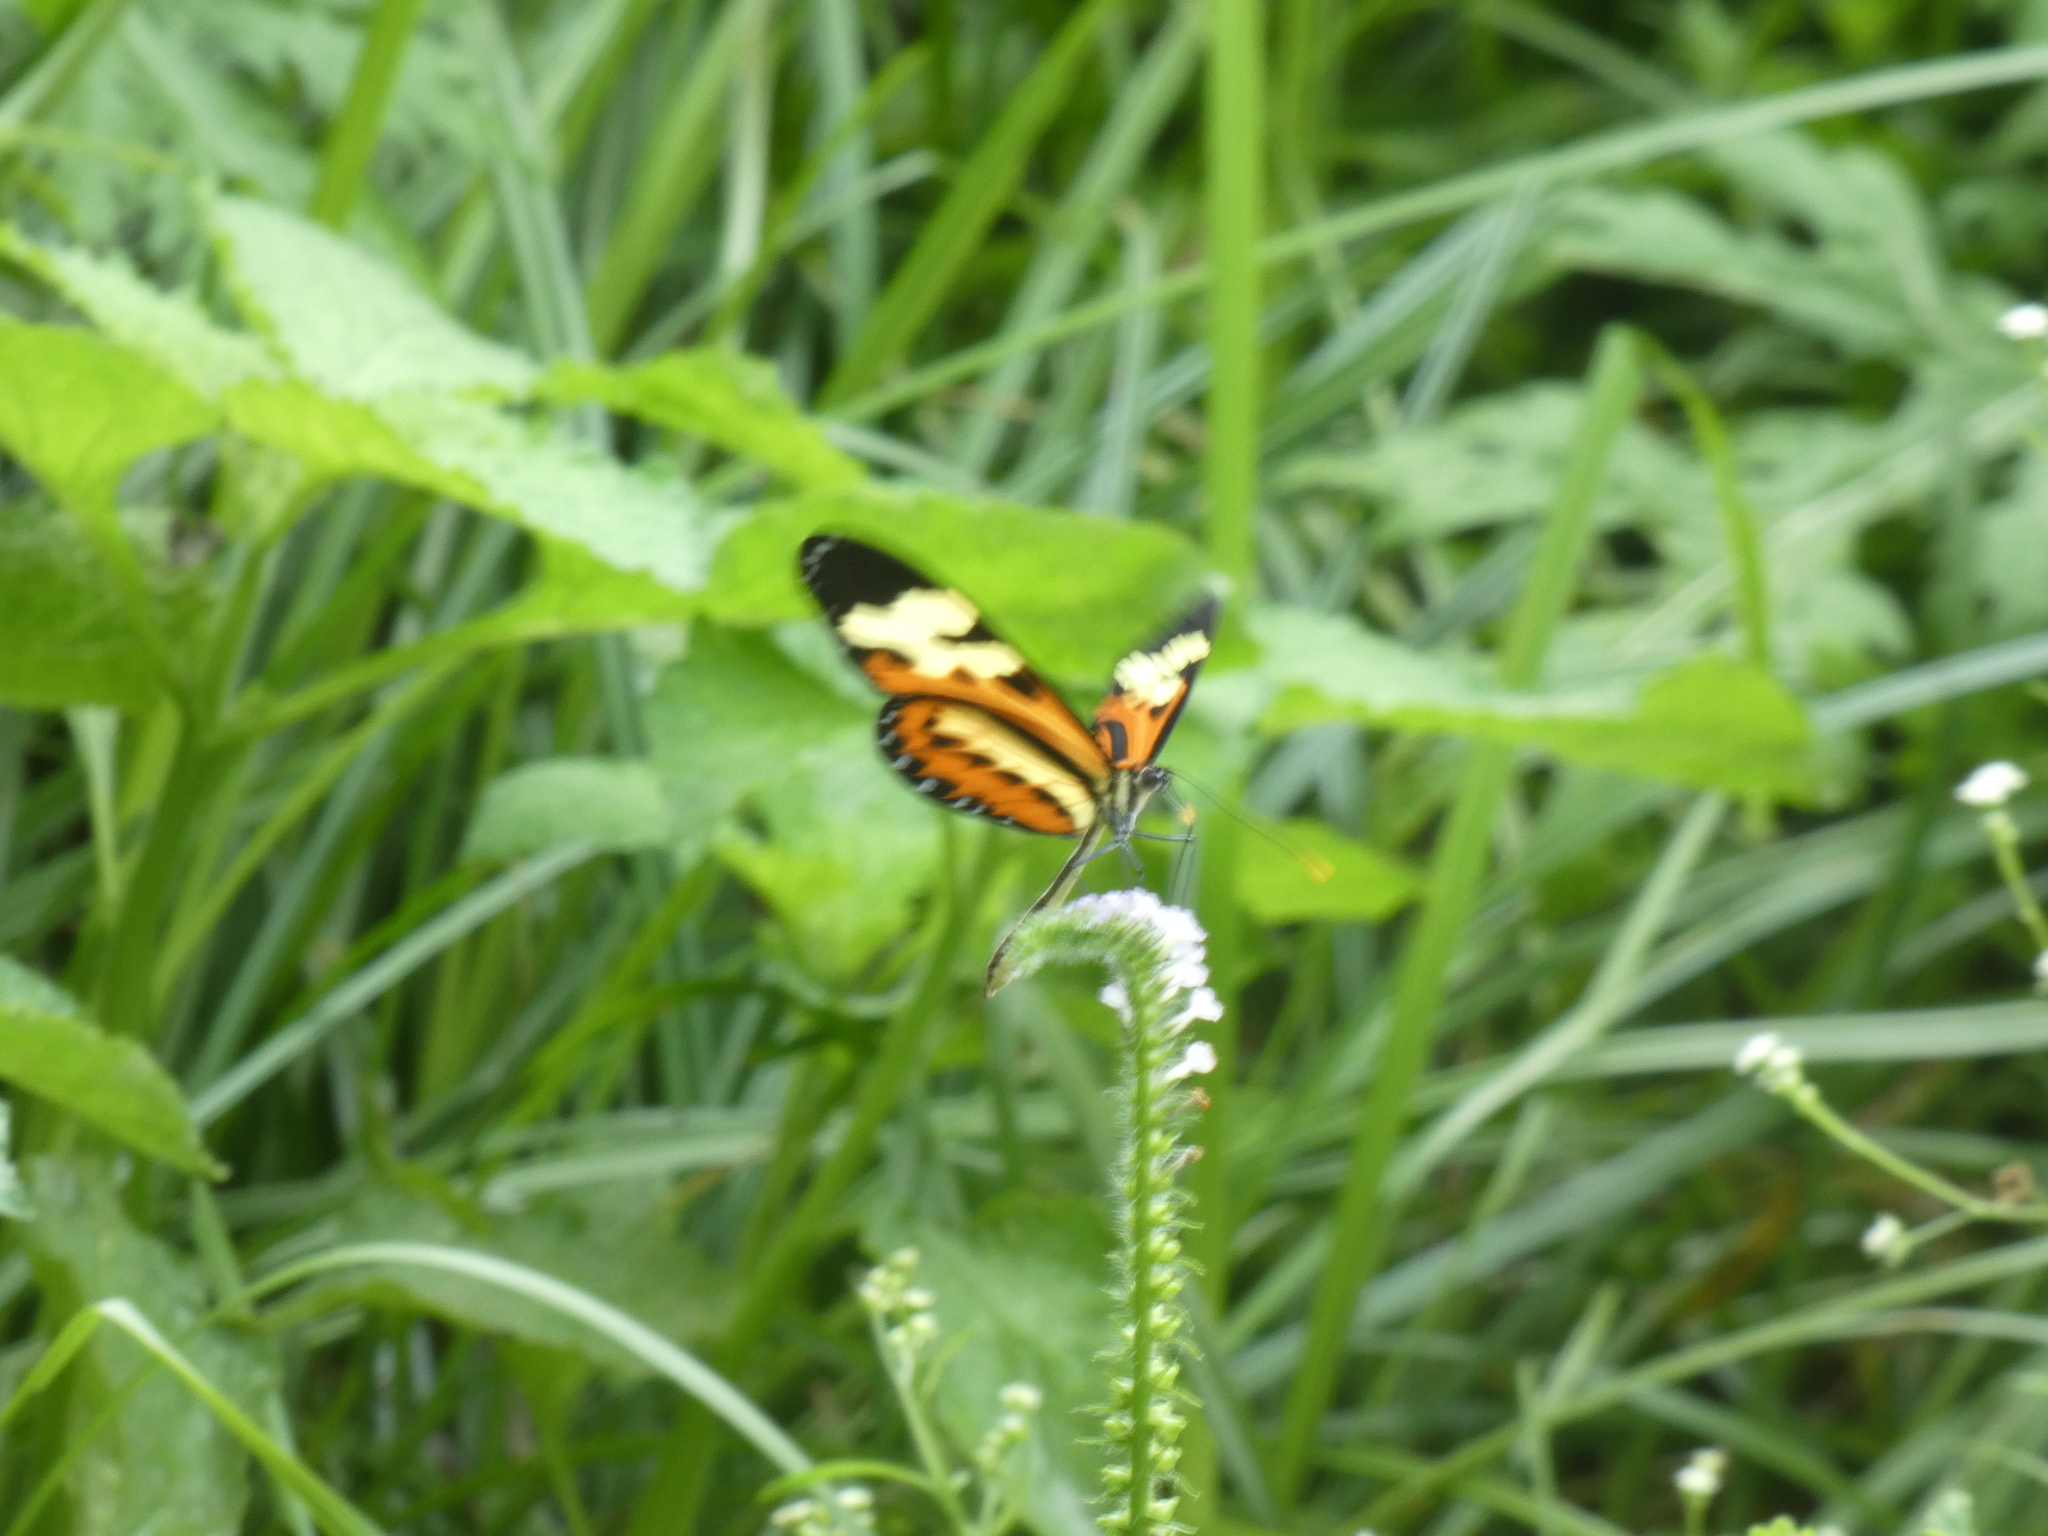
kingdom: Animalia
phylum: Arthropoda
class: Insecta
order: Lepidoptera
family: Nymphalidae
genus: Mechanitis
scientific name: Mechanitis polymnia
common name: Disturbed tigerwing
